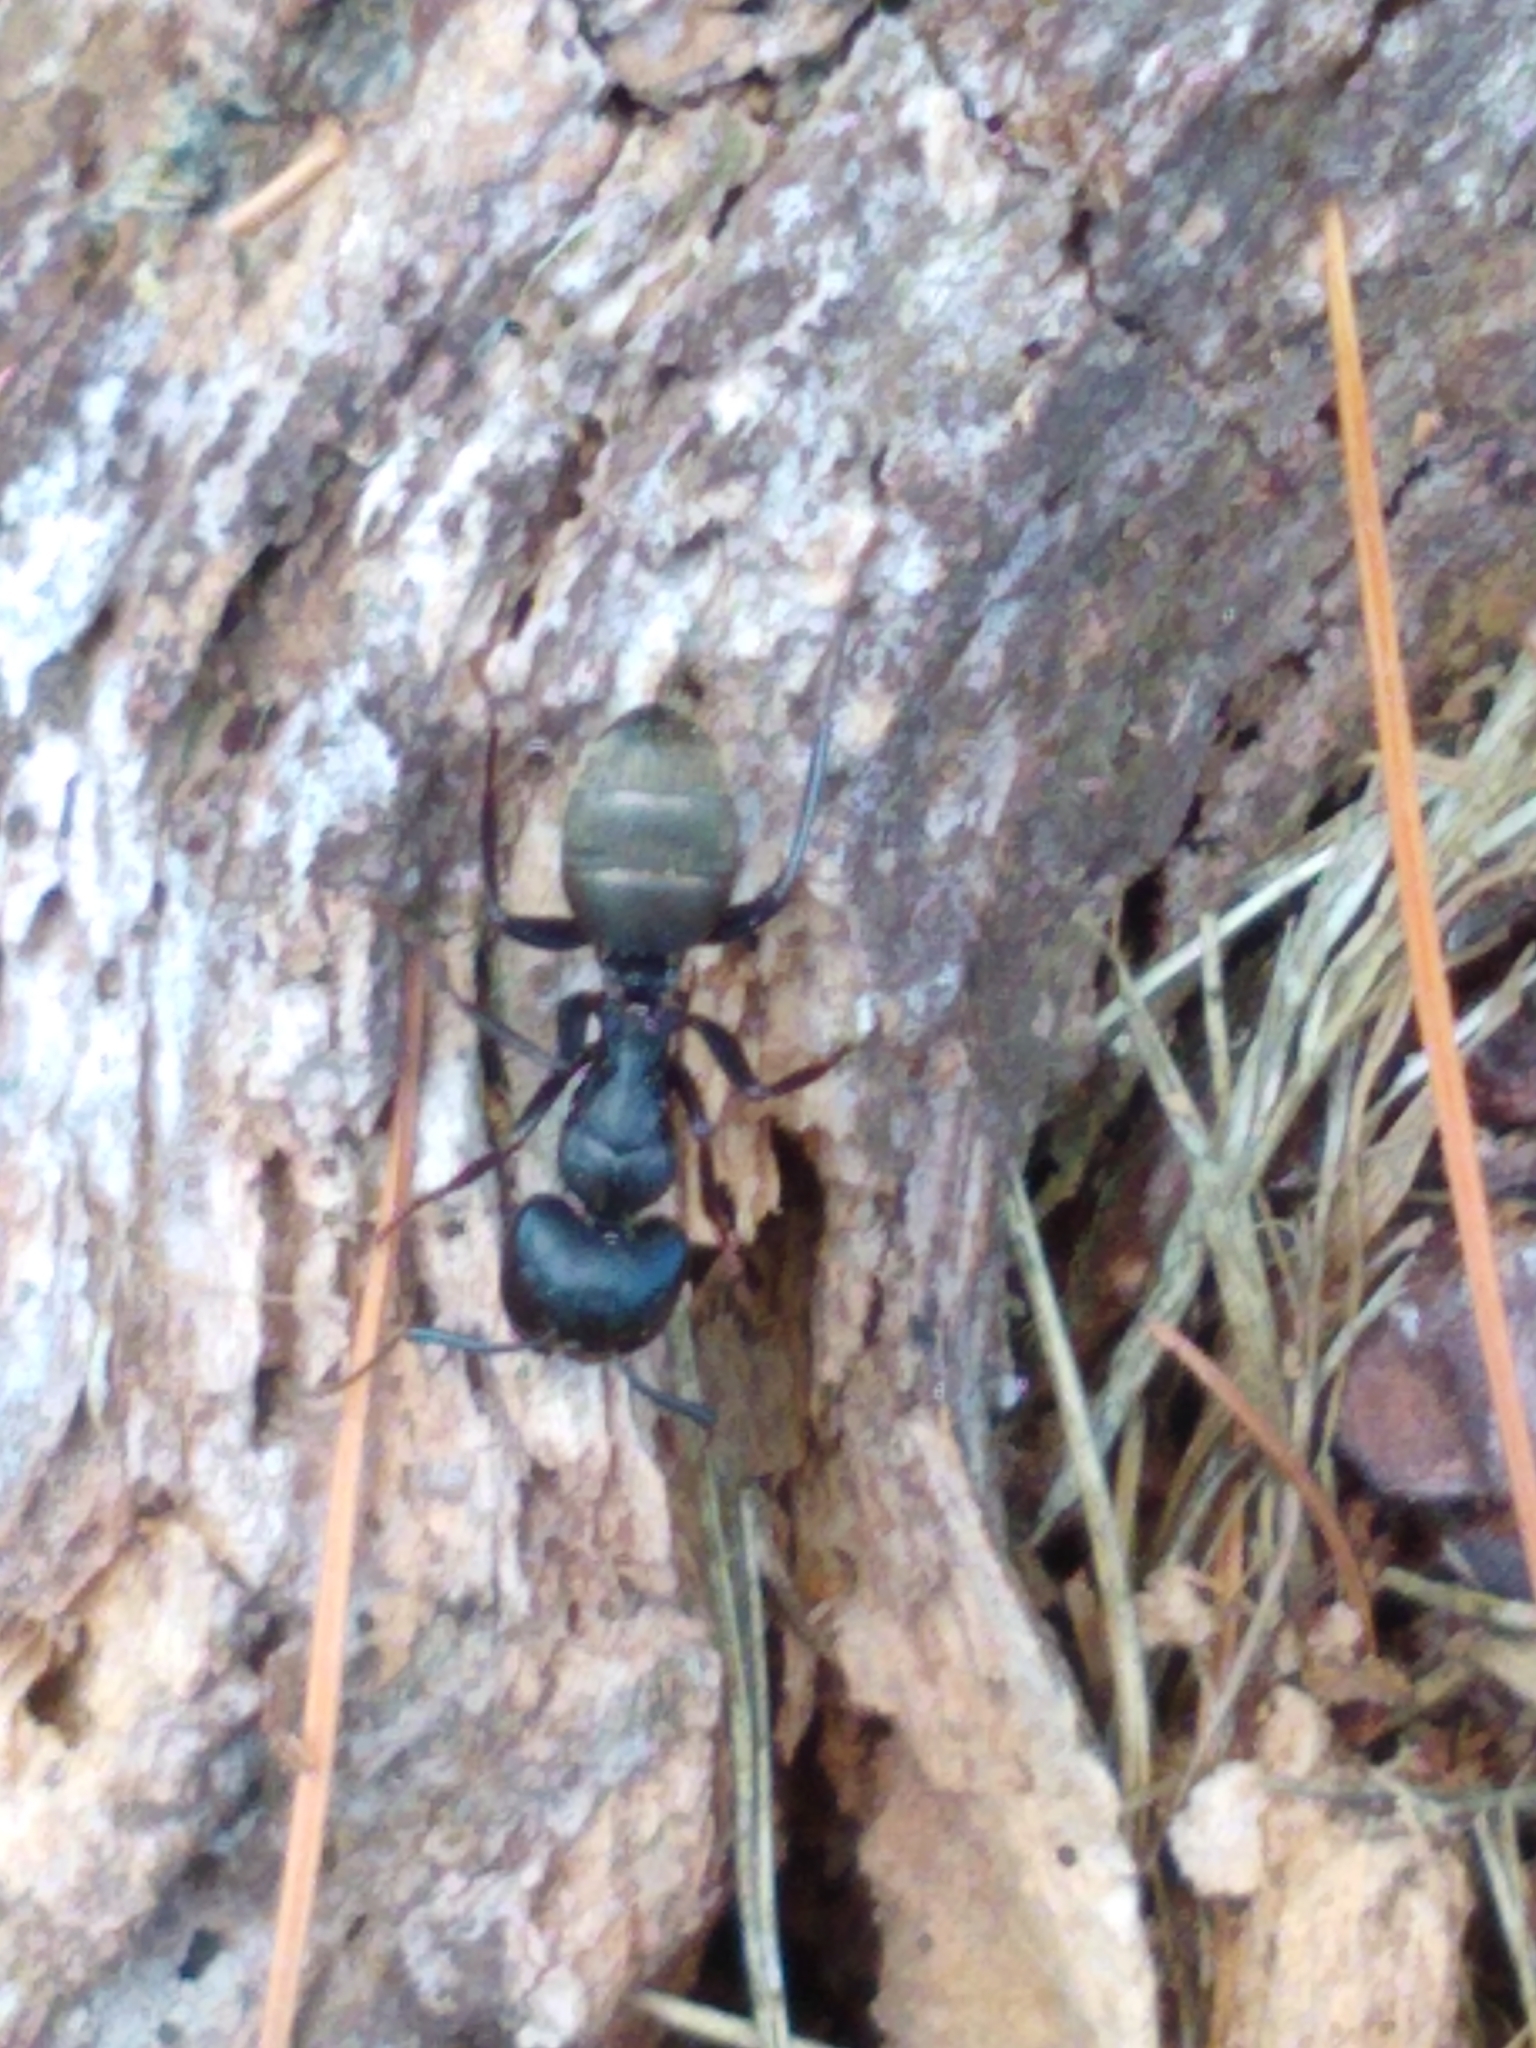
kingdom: Animalia
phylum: Arthropoda
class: Insecta
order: Hymenoptera
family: Formicidae
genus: Camponotus
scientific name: Camponotus pennsylvanicus
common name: Black carpenter ant
